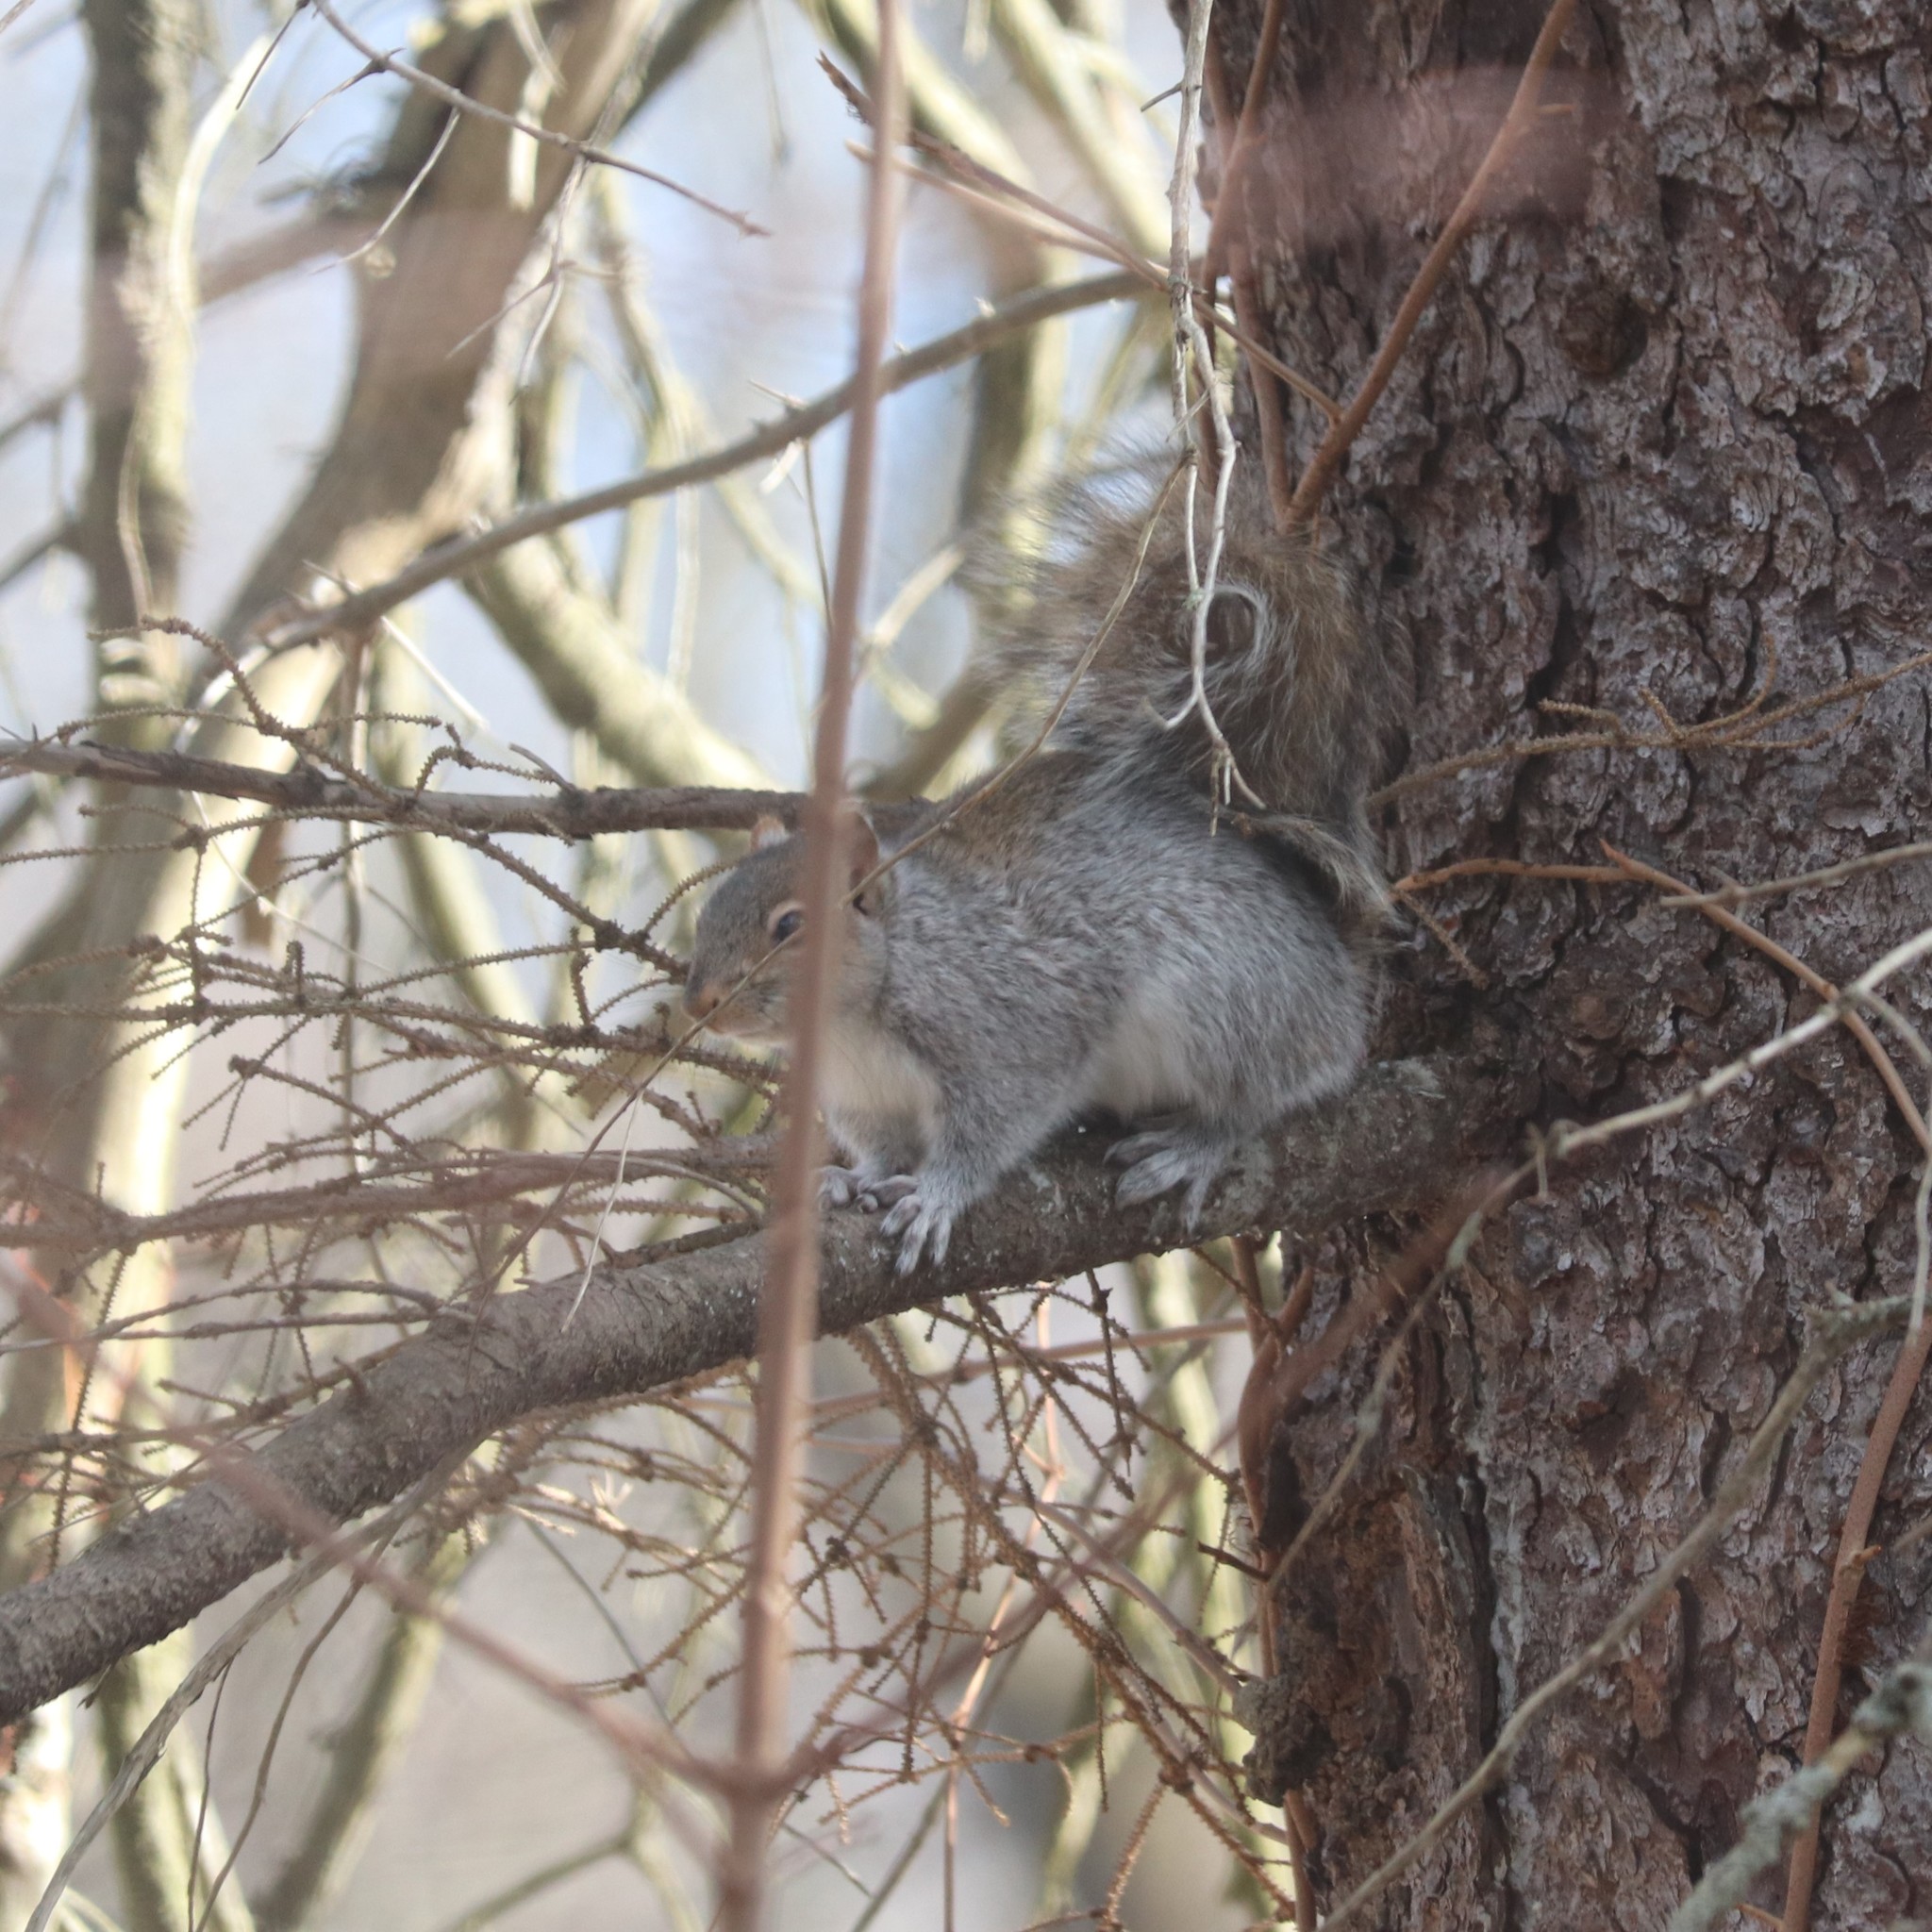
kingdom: Animalia
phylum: Chordata
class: Mammalia
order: Rodentia
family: Sciuridae
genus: Sciurus
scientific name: Sciurus carolinensis
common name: Eastern gray squirrel
